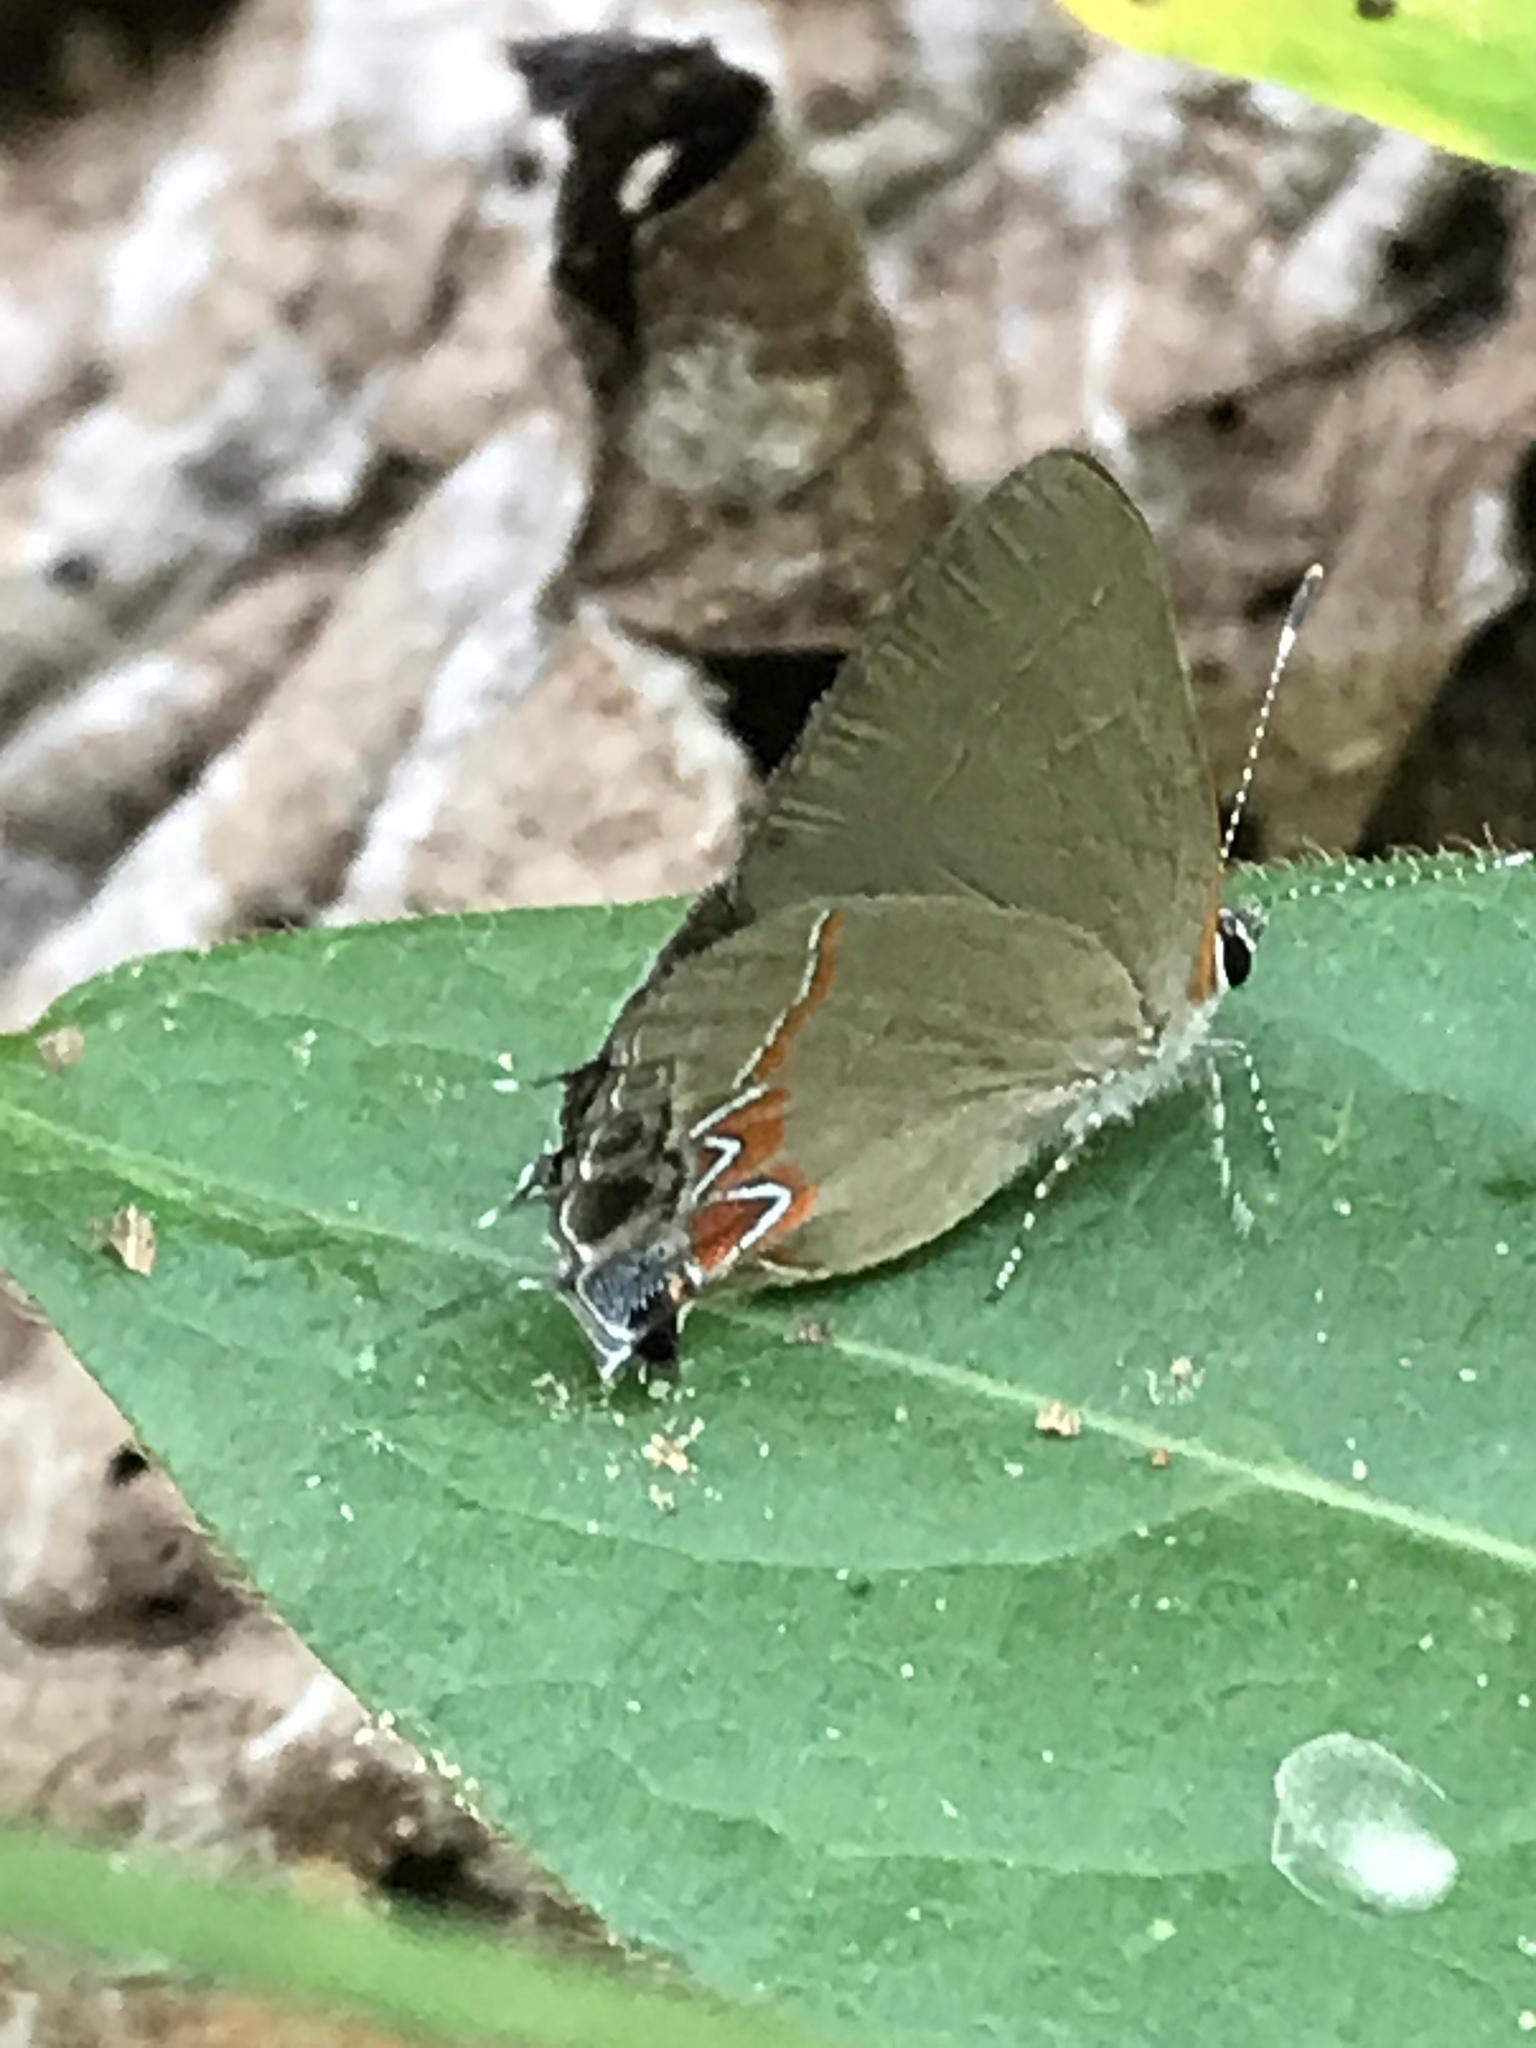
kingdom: Animalia
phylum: Arthropoda
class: Insecta
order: Lepidoptera
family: Lycaenidae
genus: Calycopis
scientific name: Calycopis cecrops
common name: Red-banded hairstreak
